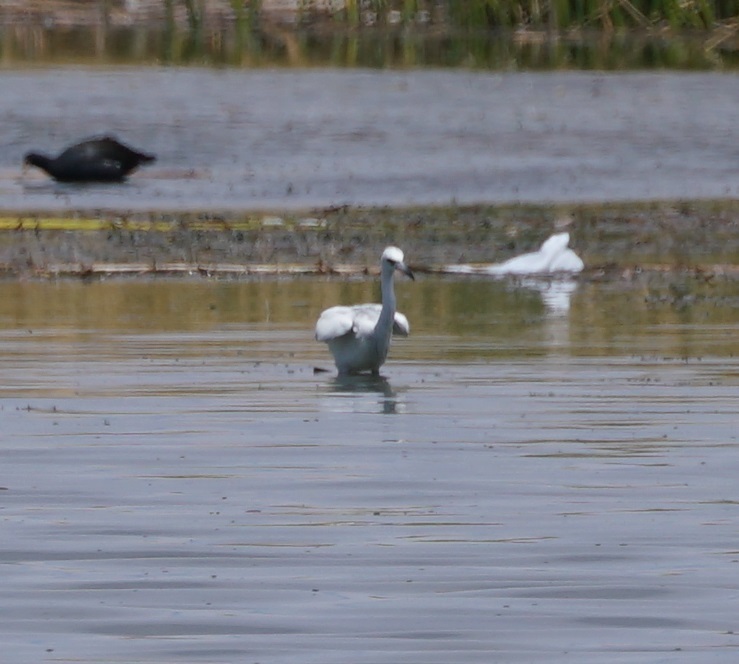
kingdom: Animalia
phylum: Chordata
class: Aves
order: Pelecaniformes
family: Ardeidae
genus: Egretta
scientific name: Egretta caerulea
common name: Little blue heron
